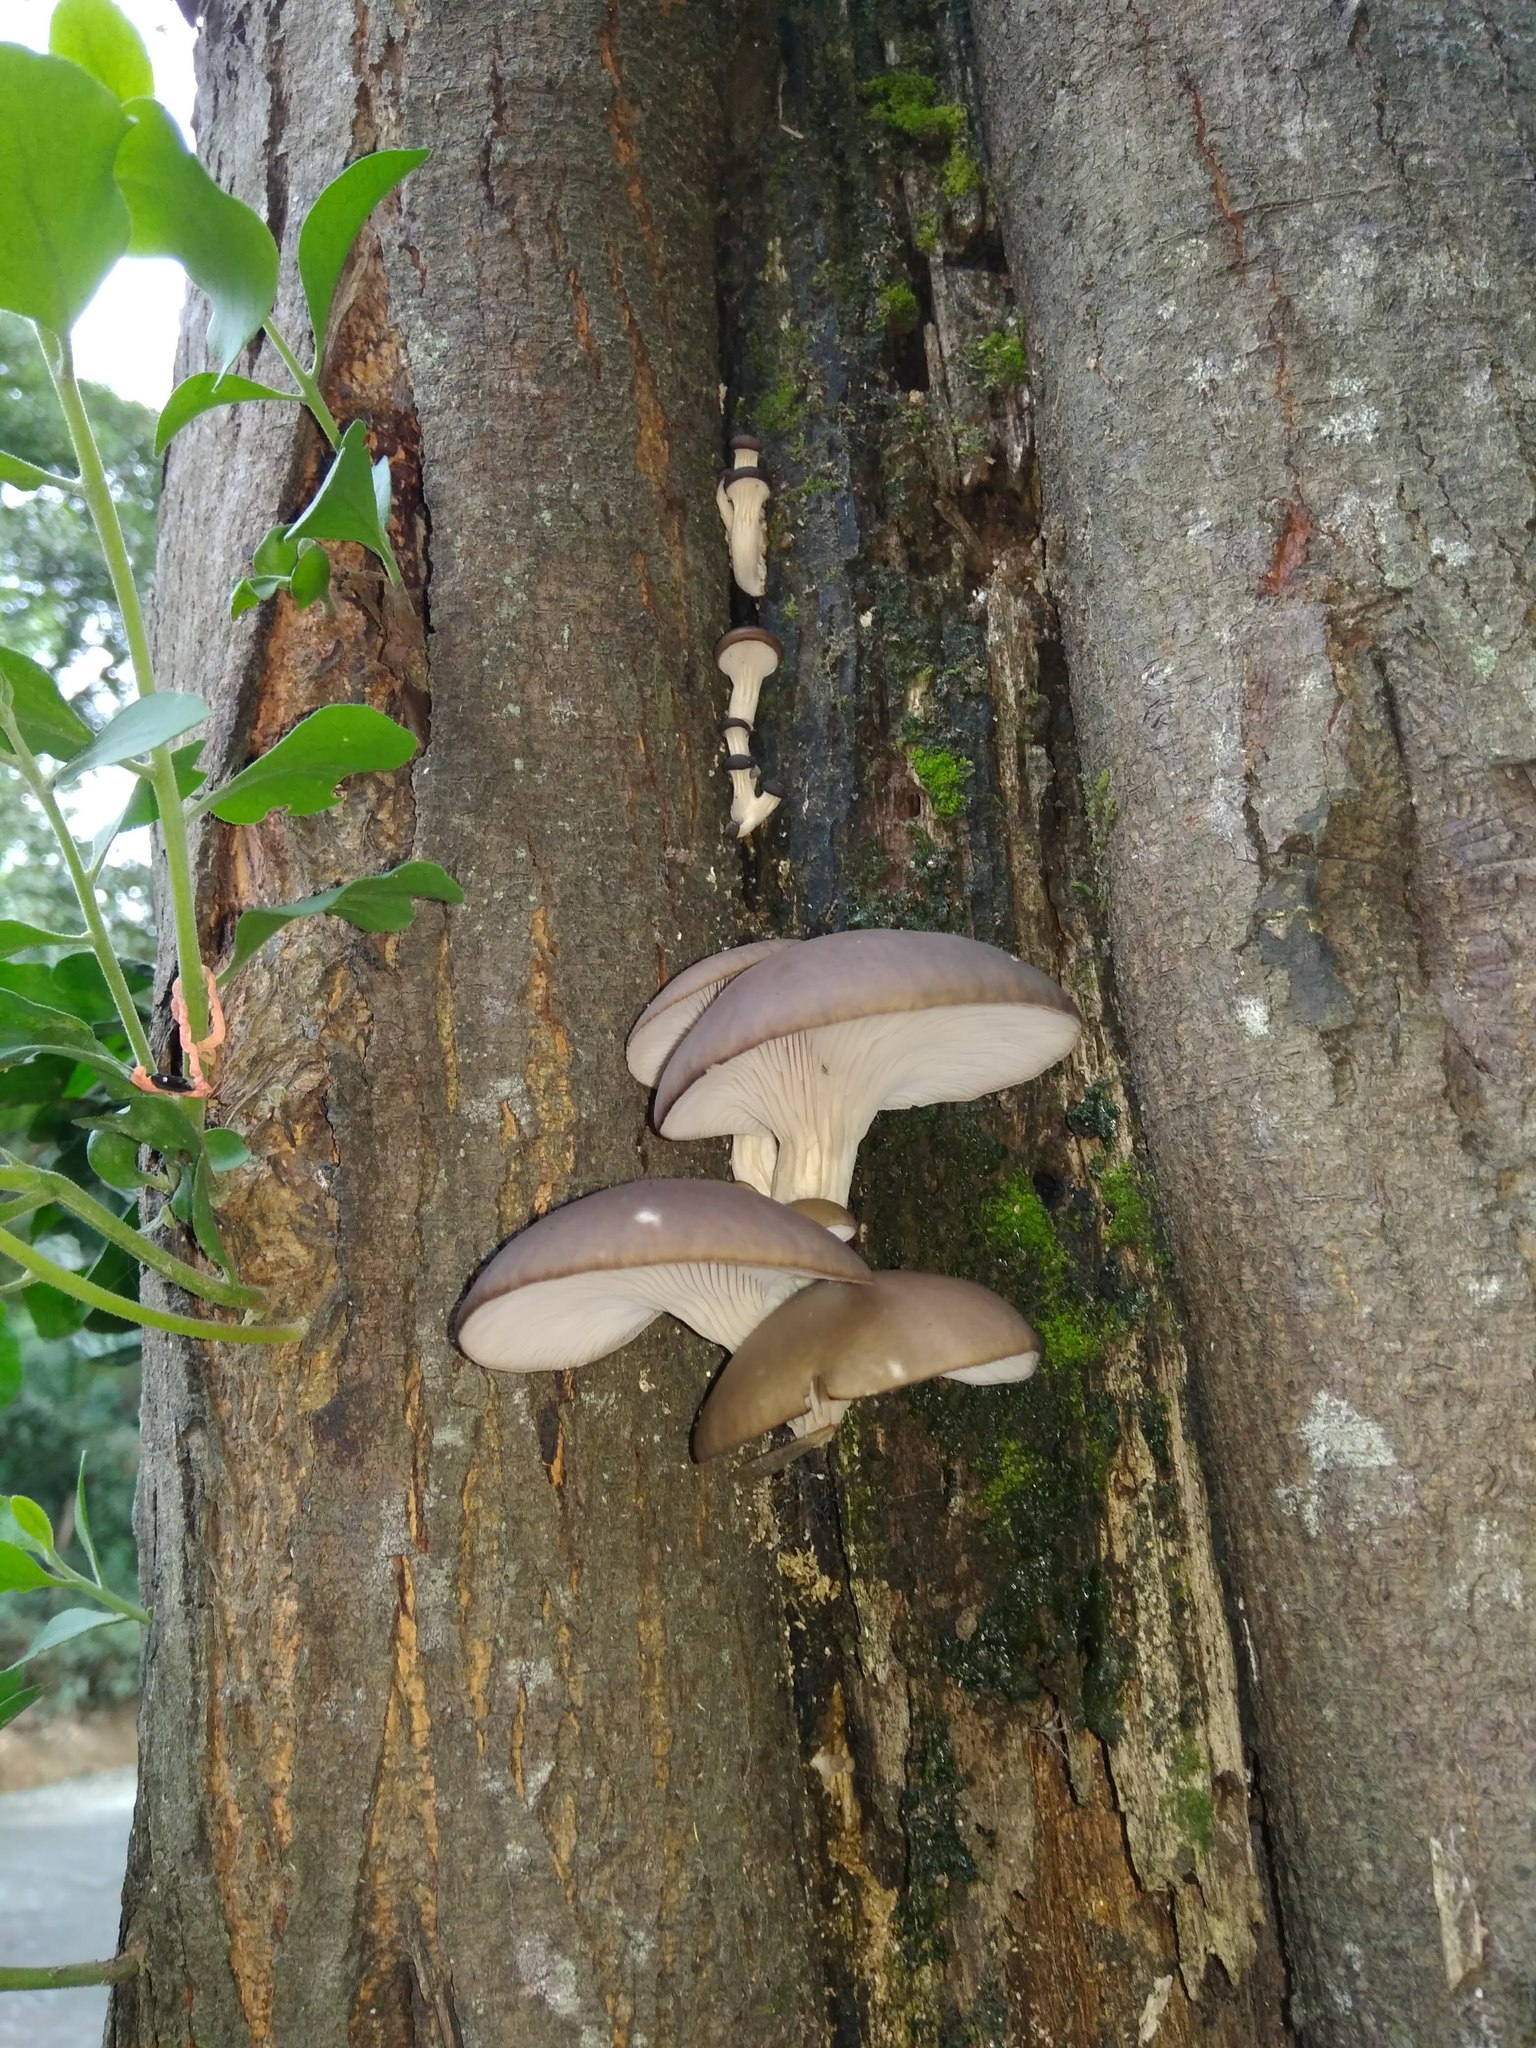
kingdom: Fungi
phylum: Basidiomycota
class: Agaricomycetes
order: Agaricales
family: Pleurotaceae
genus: Pleurotus
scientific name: Pleurotus ostreatus
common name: Oyster mushroom
